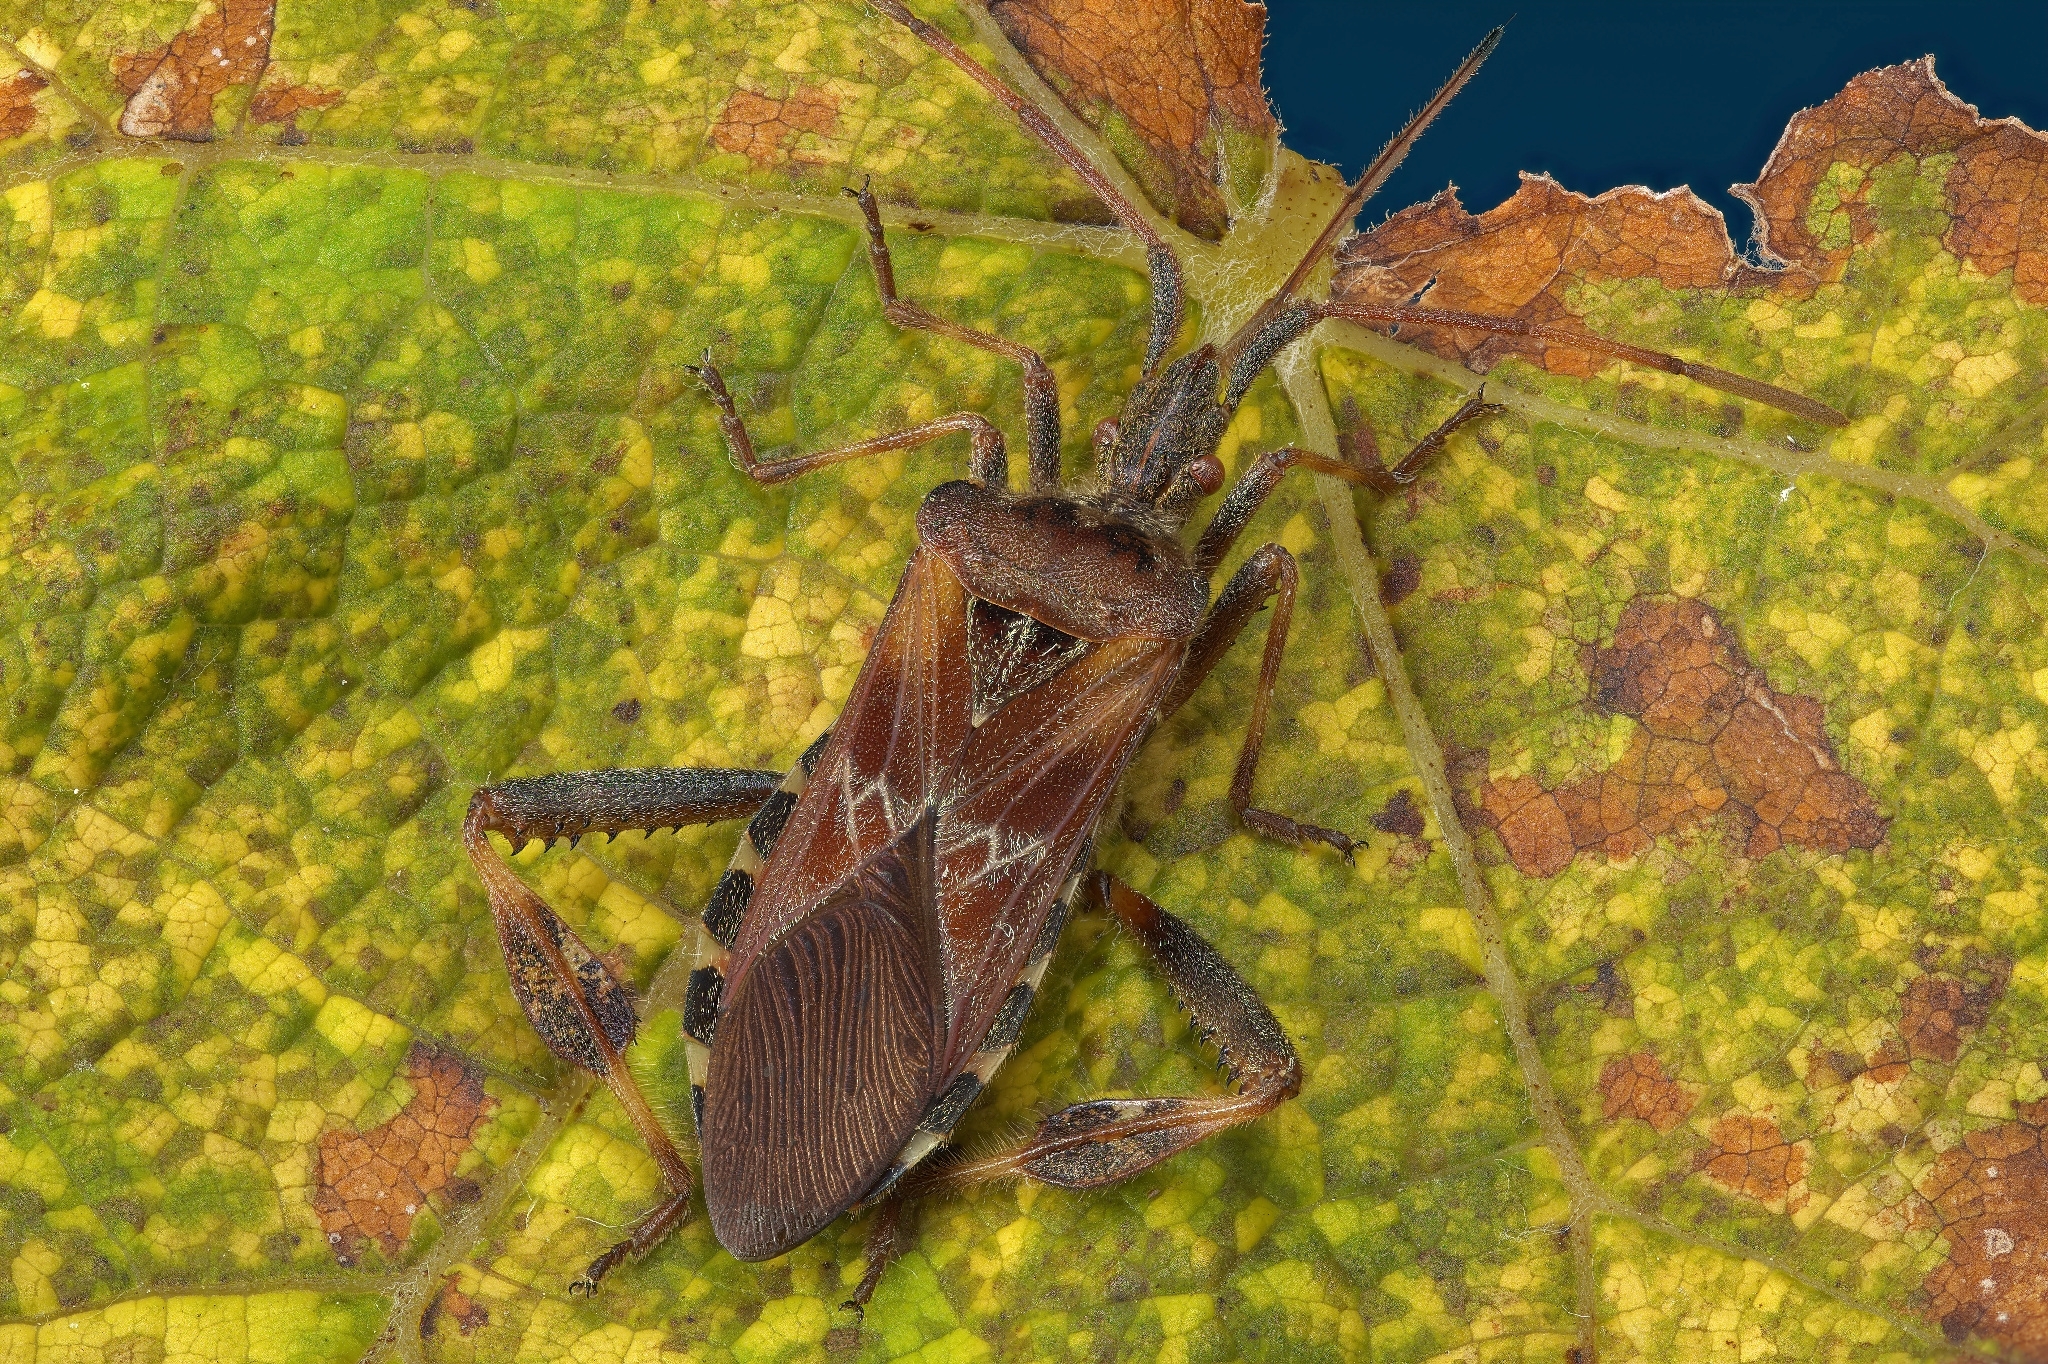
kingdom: Animalia
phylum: Arthropoda
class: Insecta
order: Hemiptera
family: Coreidae
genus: Leptoglossus
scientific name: Leptoglossus occidentalis
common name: Western conifer-seed bug
